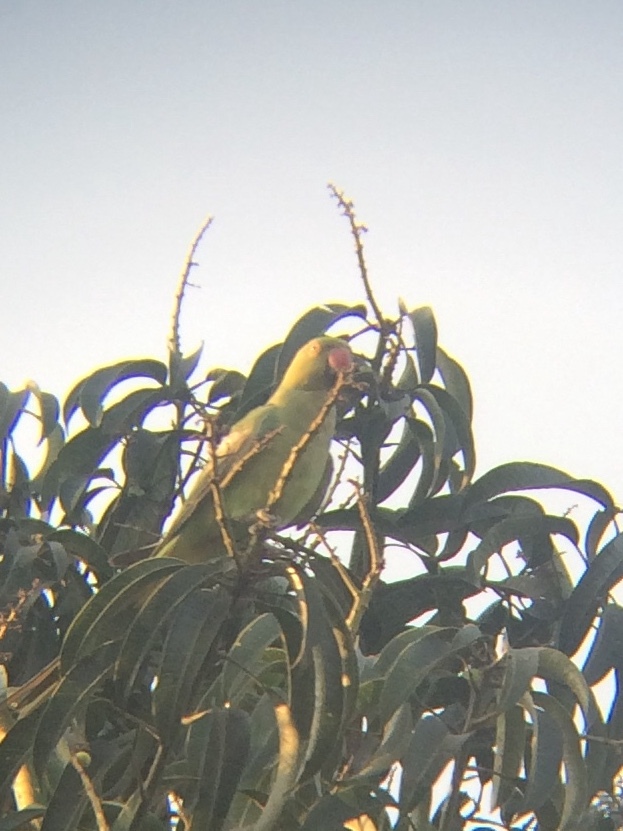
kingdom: Animalia
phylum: Chordata
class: Aves
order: Psittaciformes
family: Psittacidae
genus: Psittacula
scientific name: Psittacula krameri
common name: Rose-ringed parakeet
